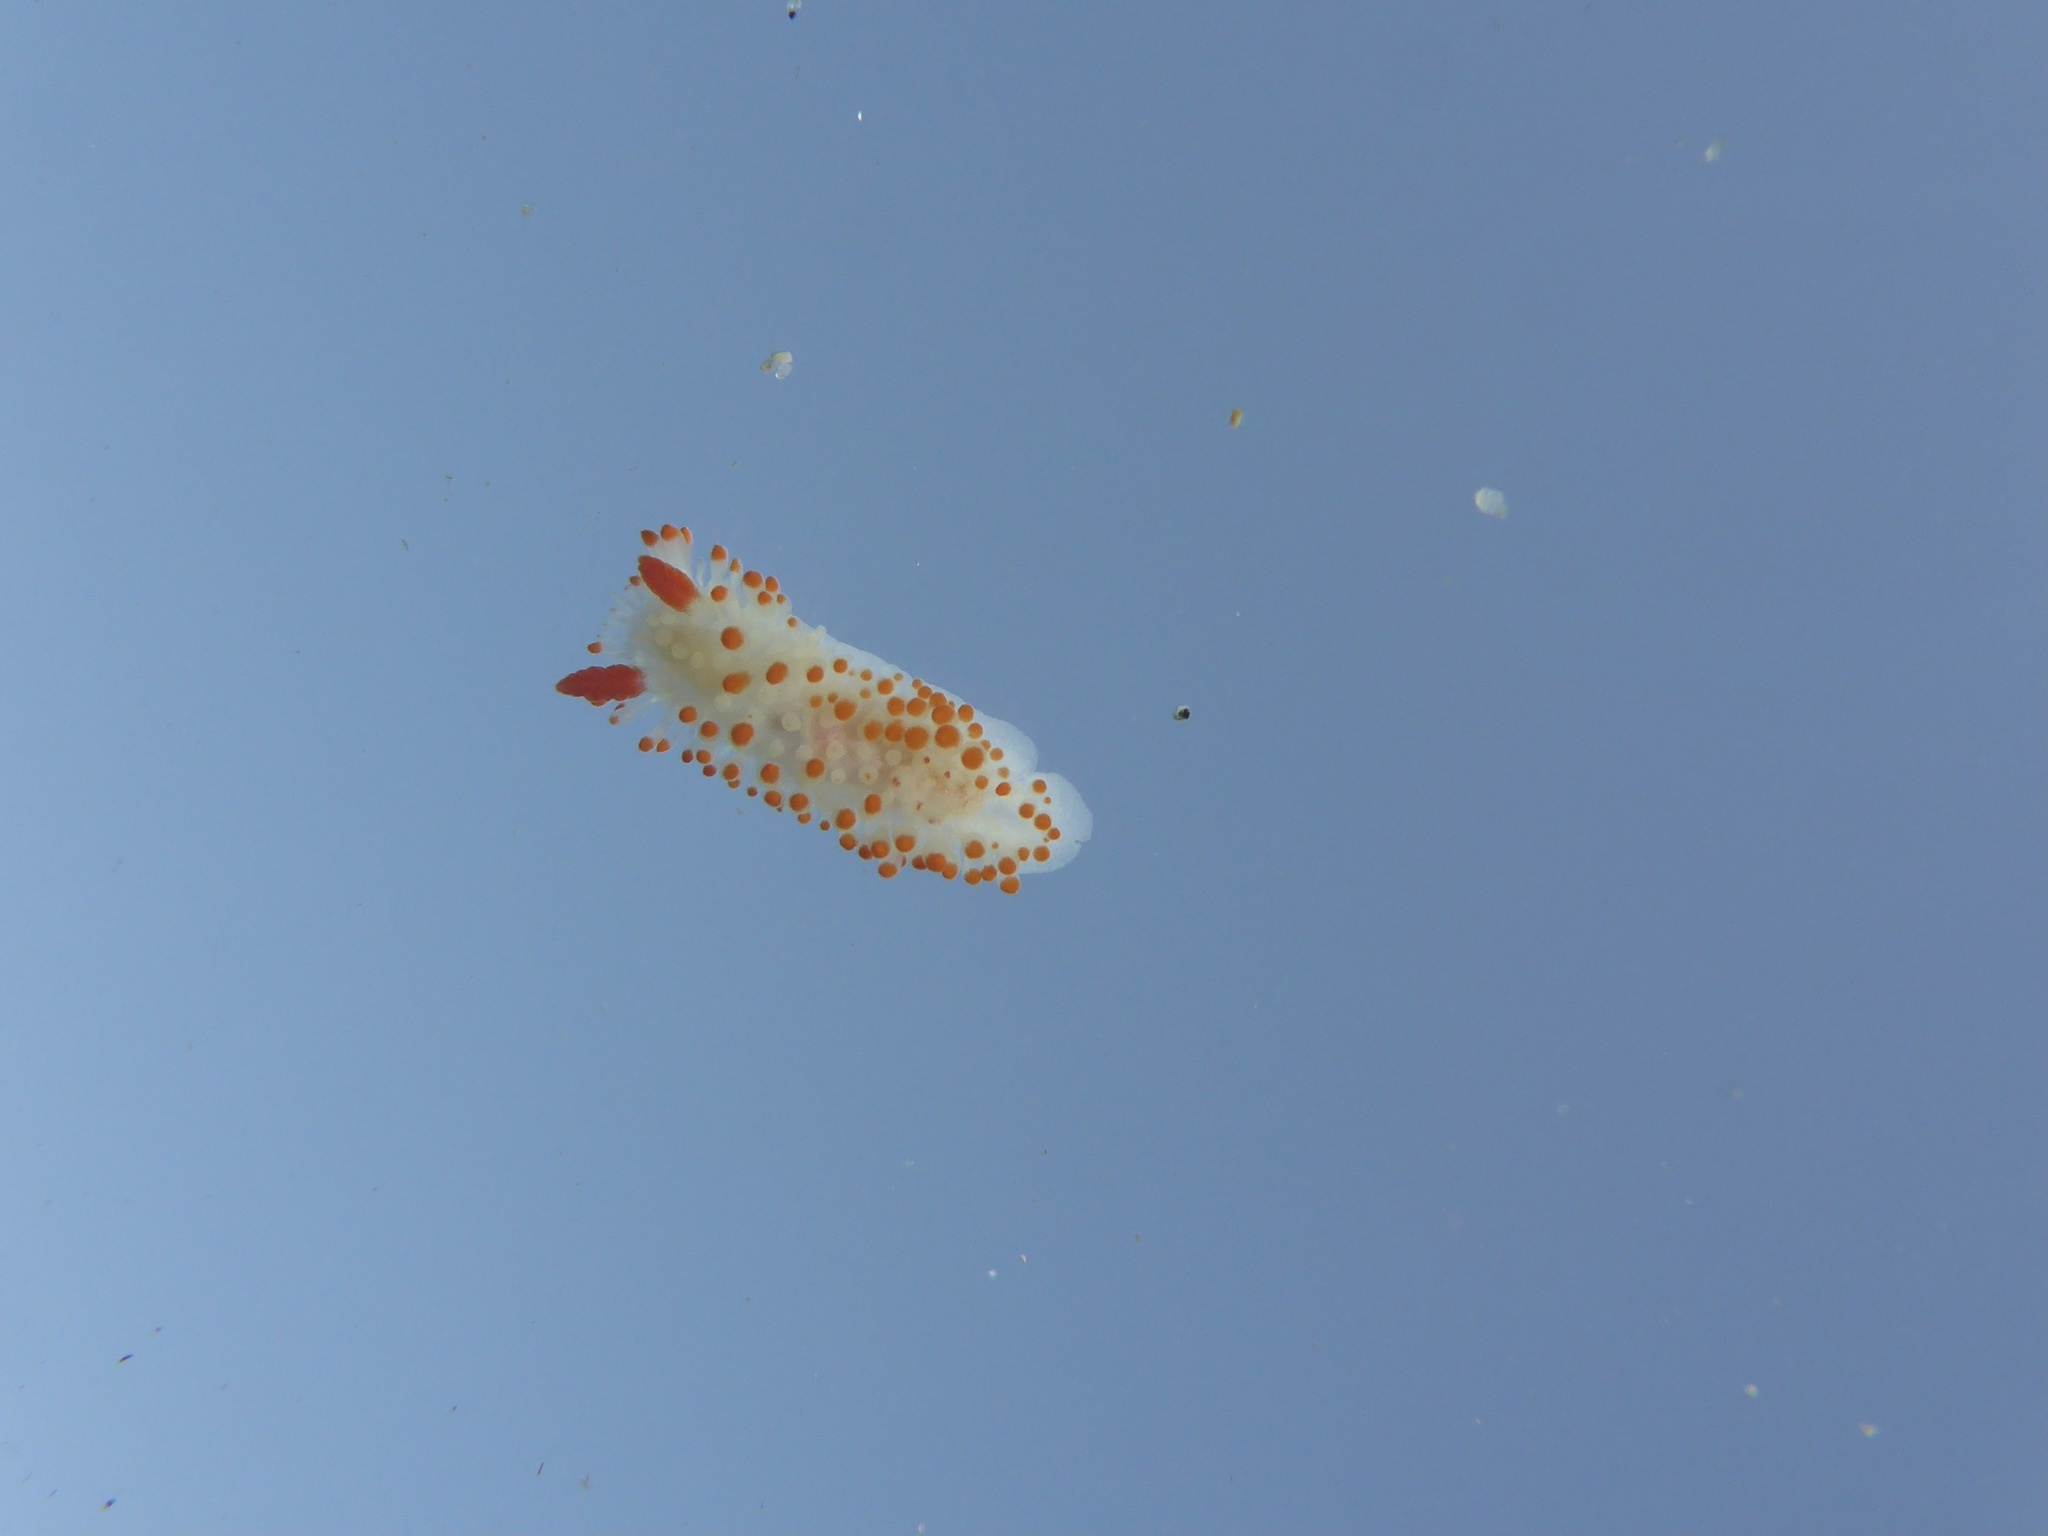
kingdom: Animalia
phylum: Mollusca
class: Gastropoda
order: Nudibranchia
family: Polyceridae
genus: Limacia
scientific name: Limacia cockerelli
